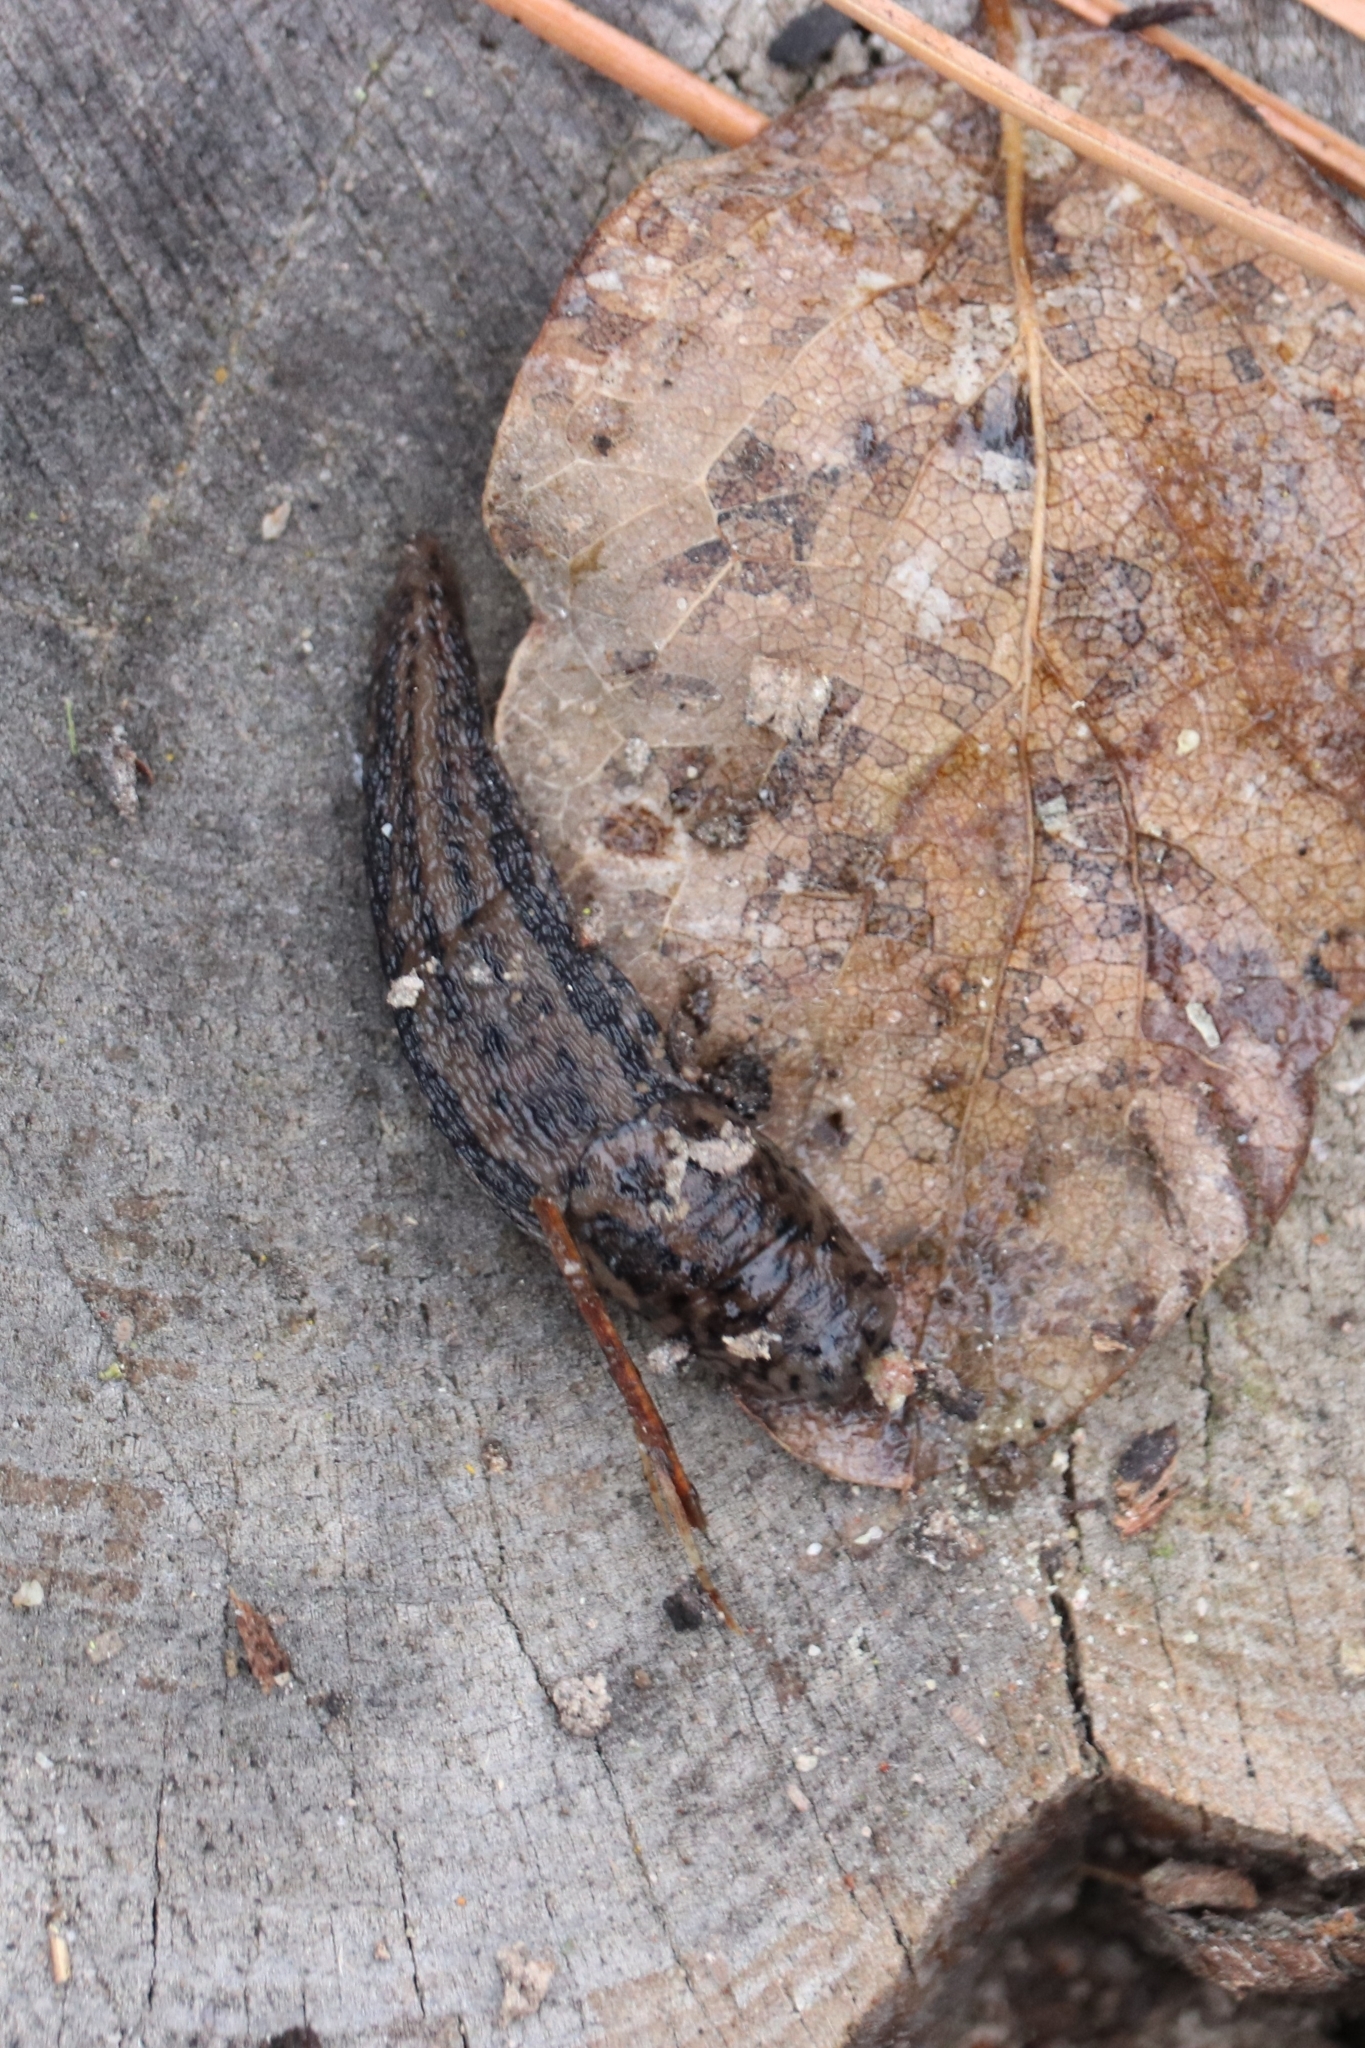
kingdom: Animalia
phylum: Mollusca
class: Gastropoda
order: Stylommatophora
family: Limacidae
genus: Limax
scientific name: Limax maximus
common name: Great grey slug
